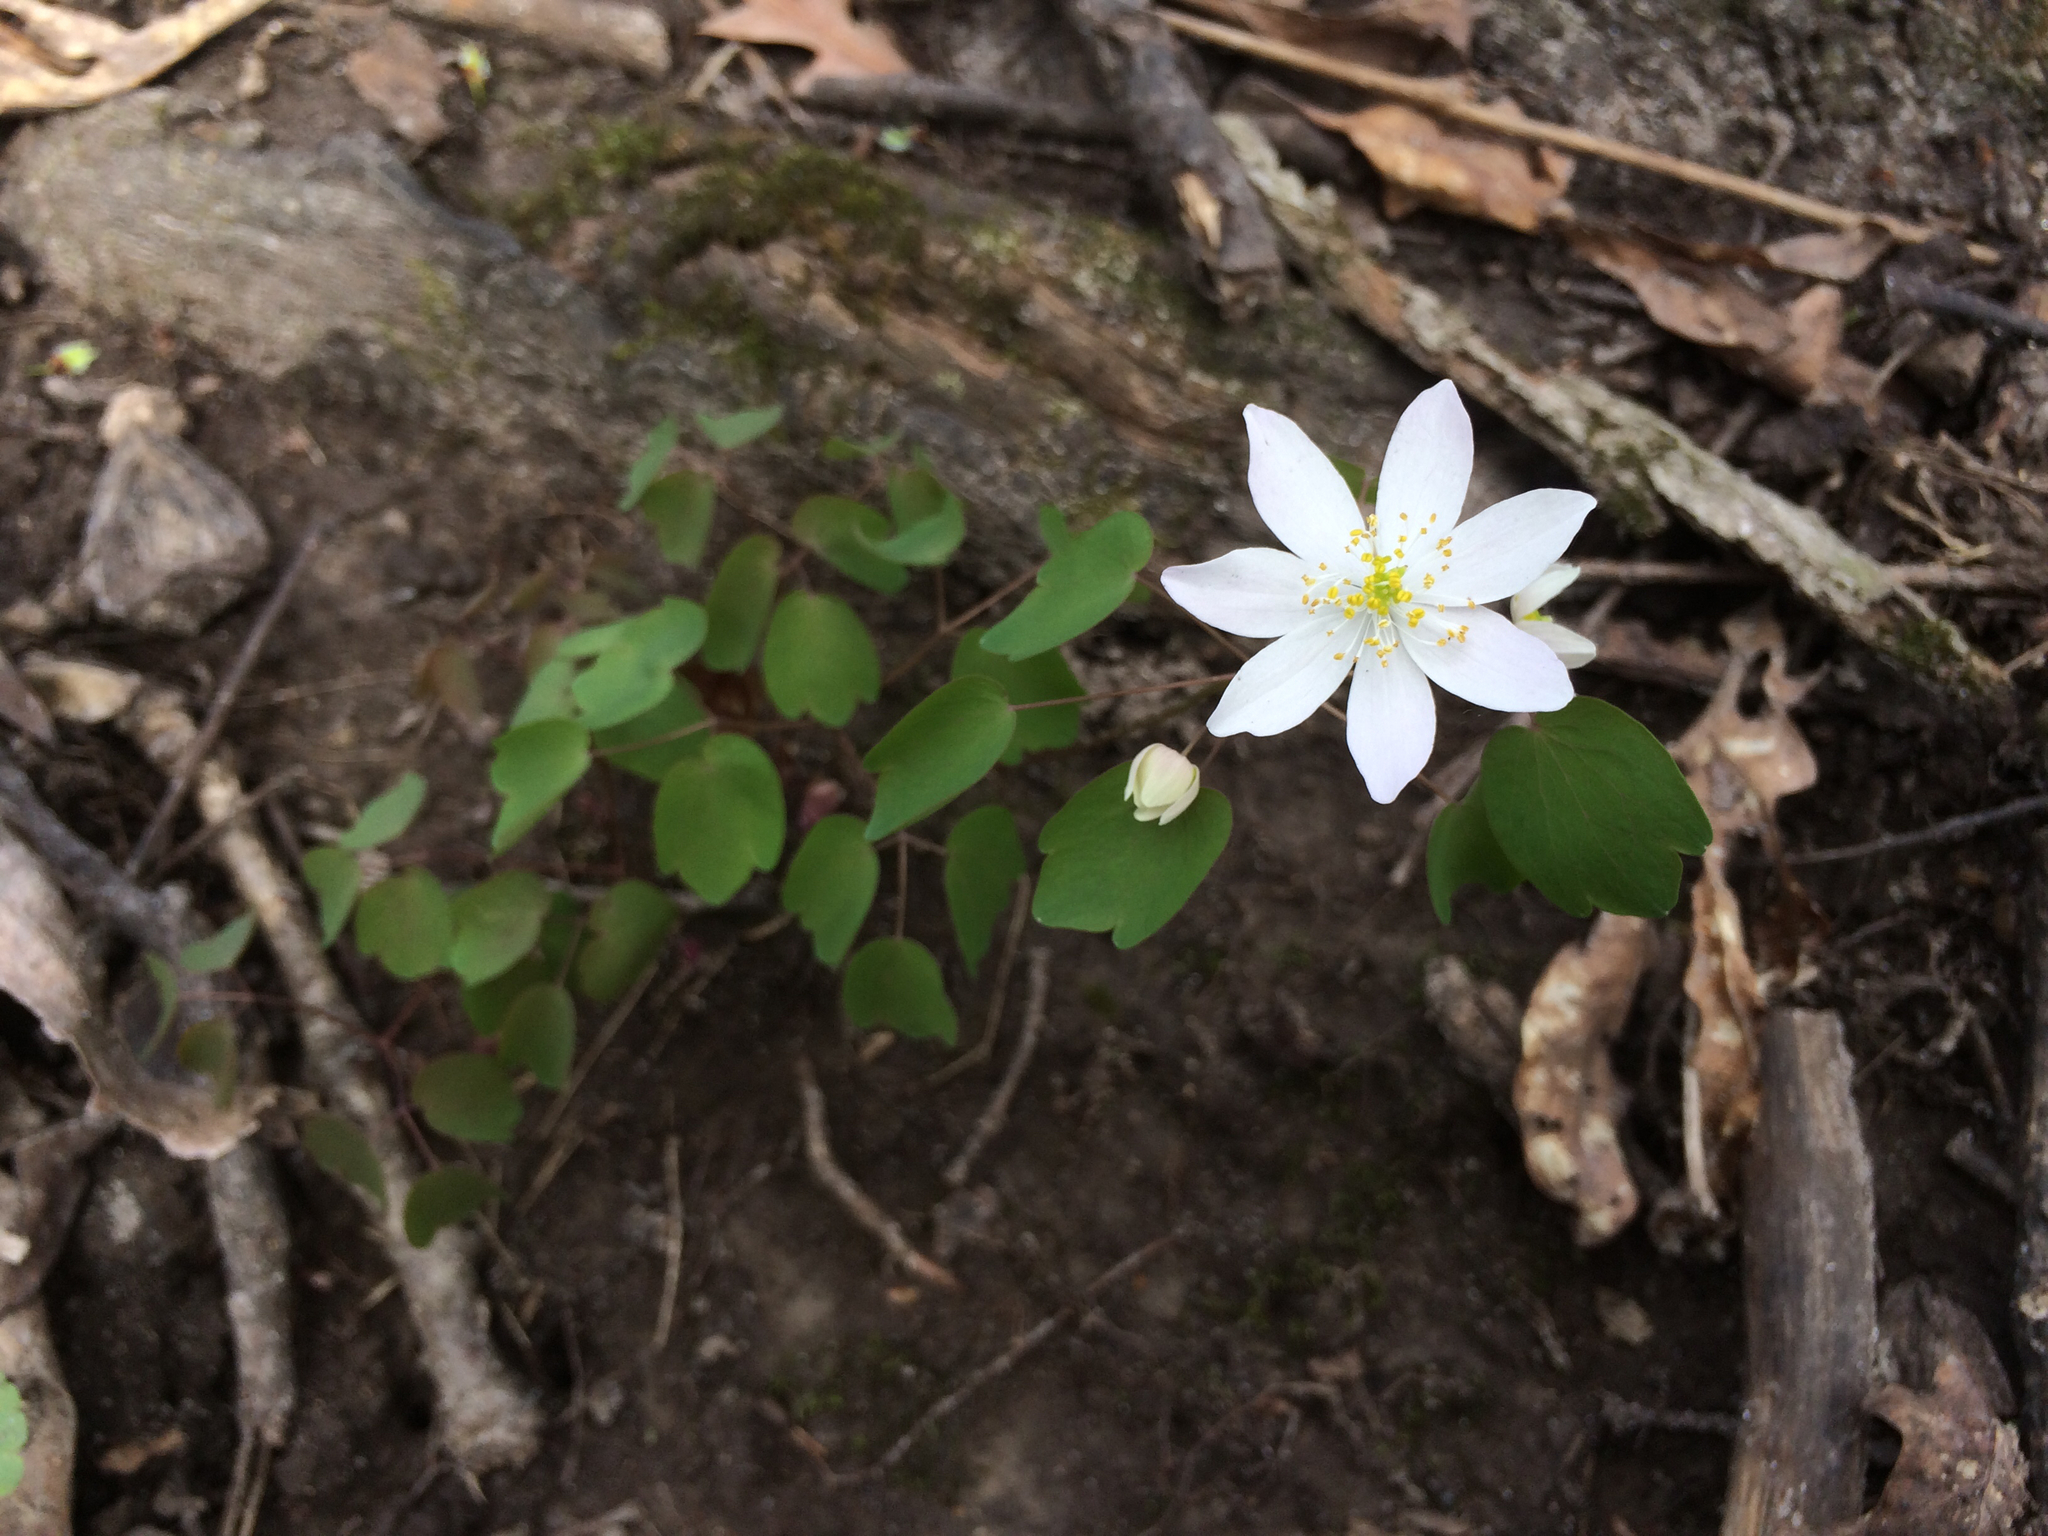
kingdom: Plantae
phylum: Tracheophyta
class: Magnoliopsida
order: Ranunculales
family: Ranunculaceae
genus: Thalictrum
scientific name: Thalictrum thalictroides
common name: Rue-anemone
